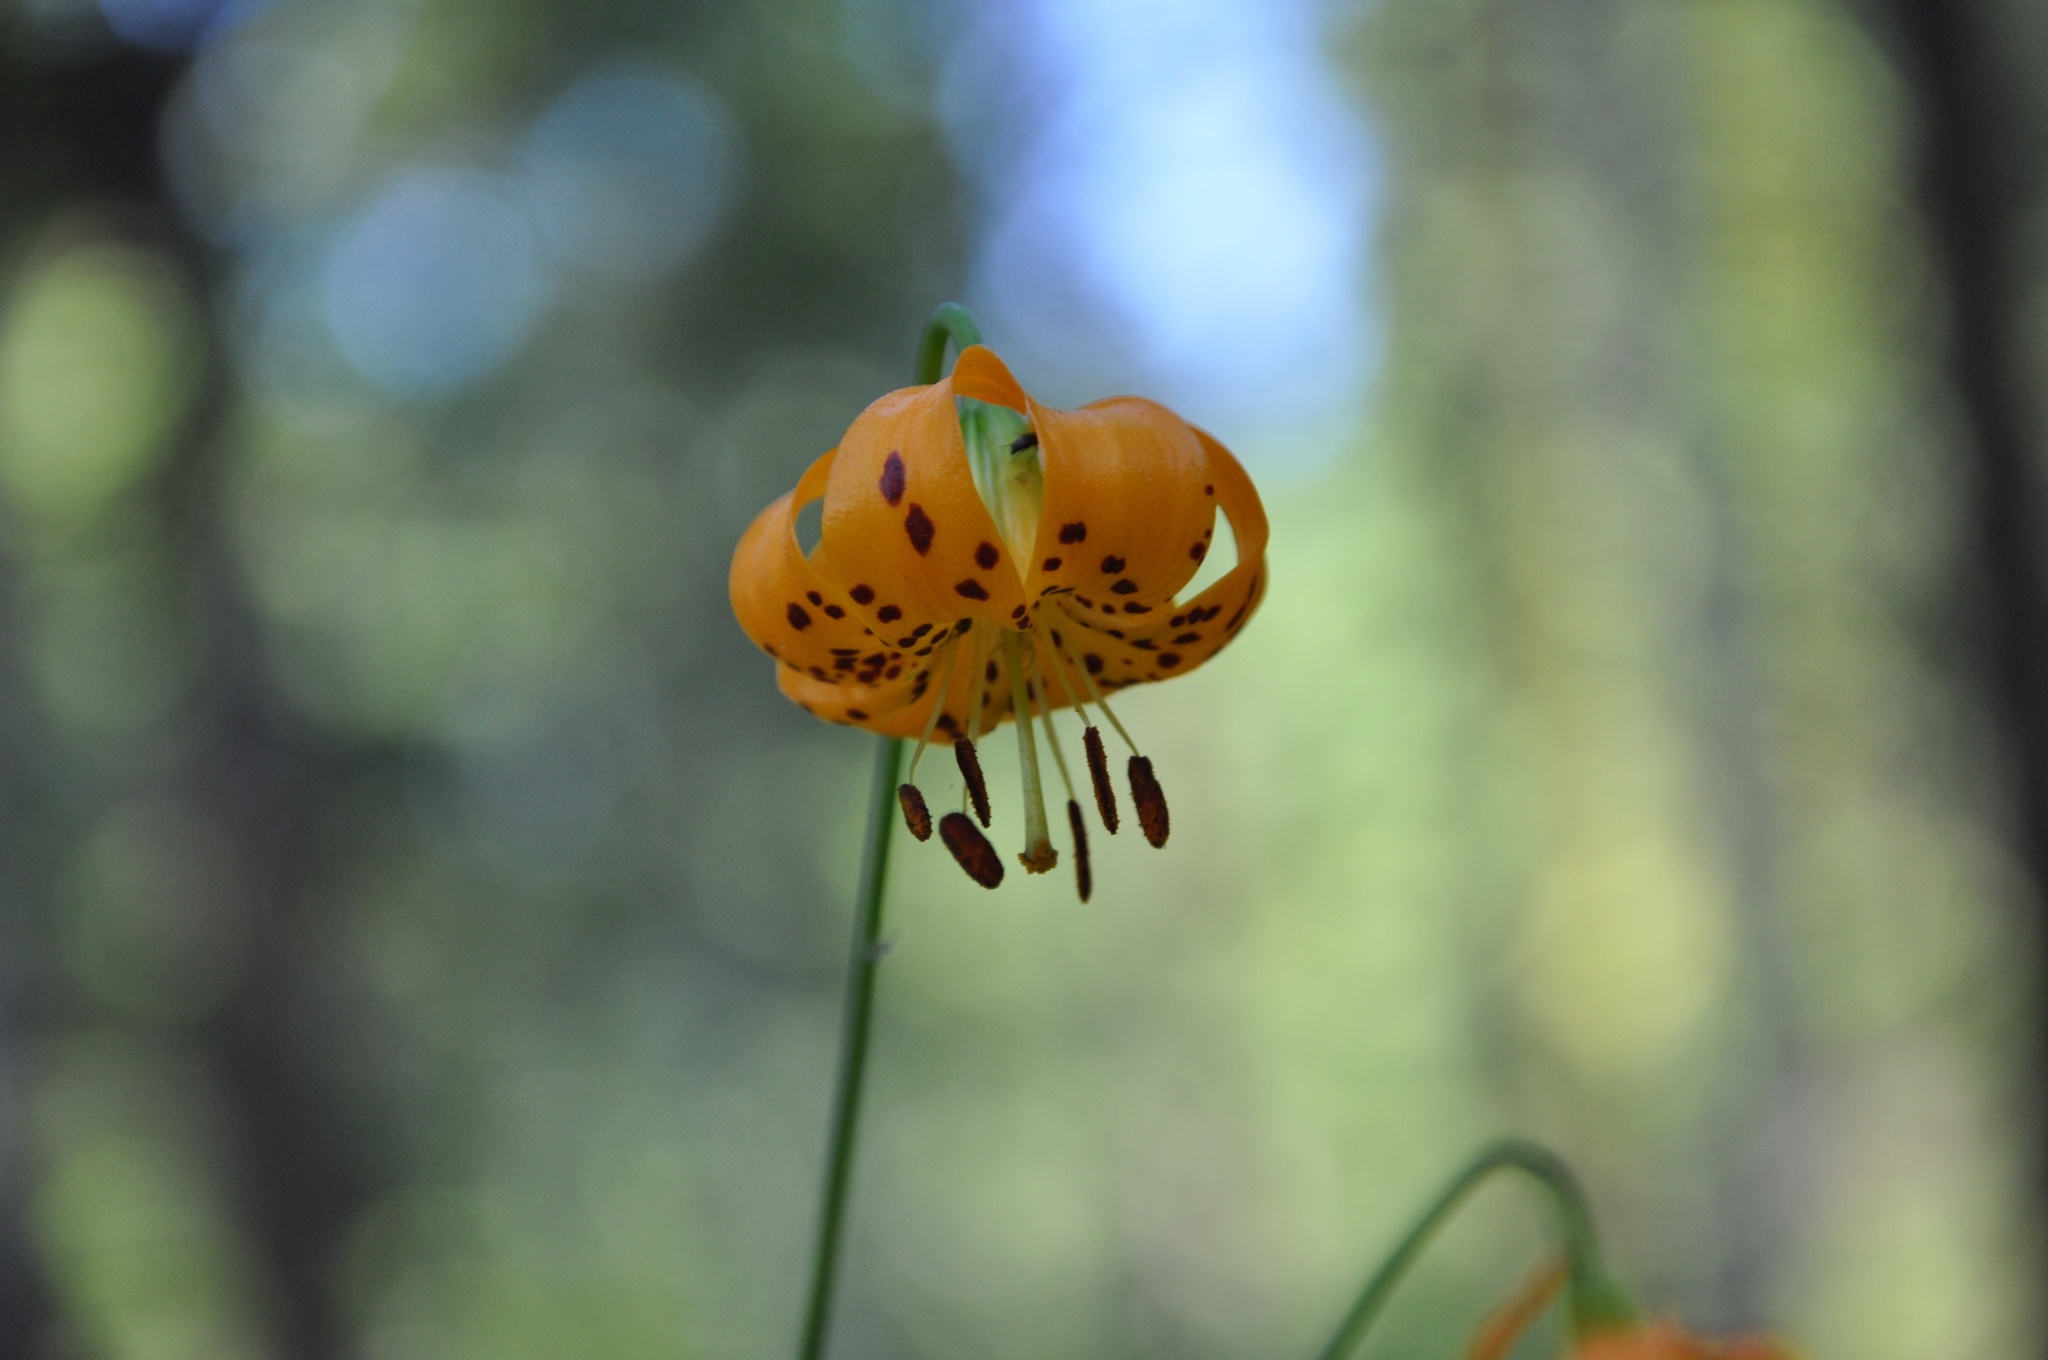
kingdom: Plantae
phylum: Tracheophyta
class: Liliopsida
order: Liliales
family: Liliaceae
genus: Lilium
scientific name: Lilium kelleyanum
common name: Kelley's lily
